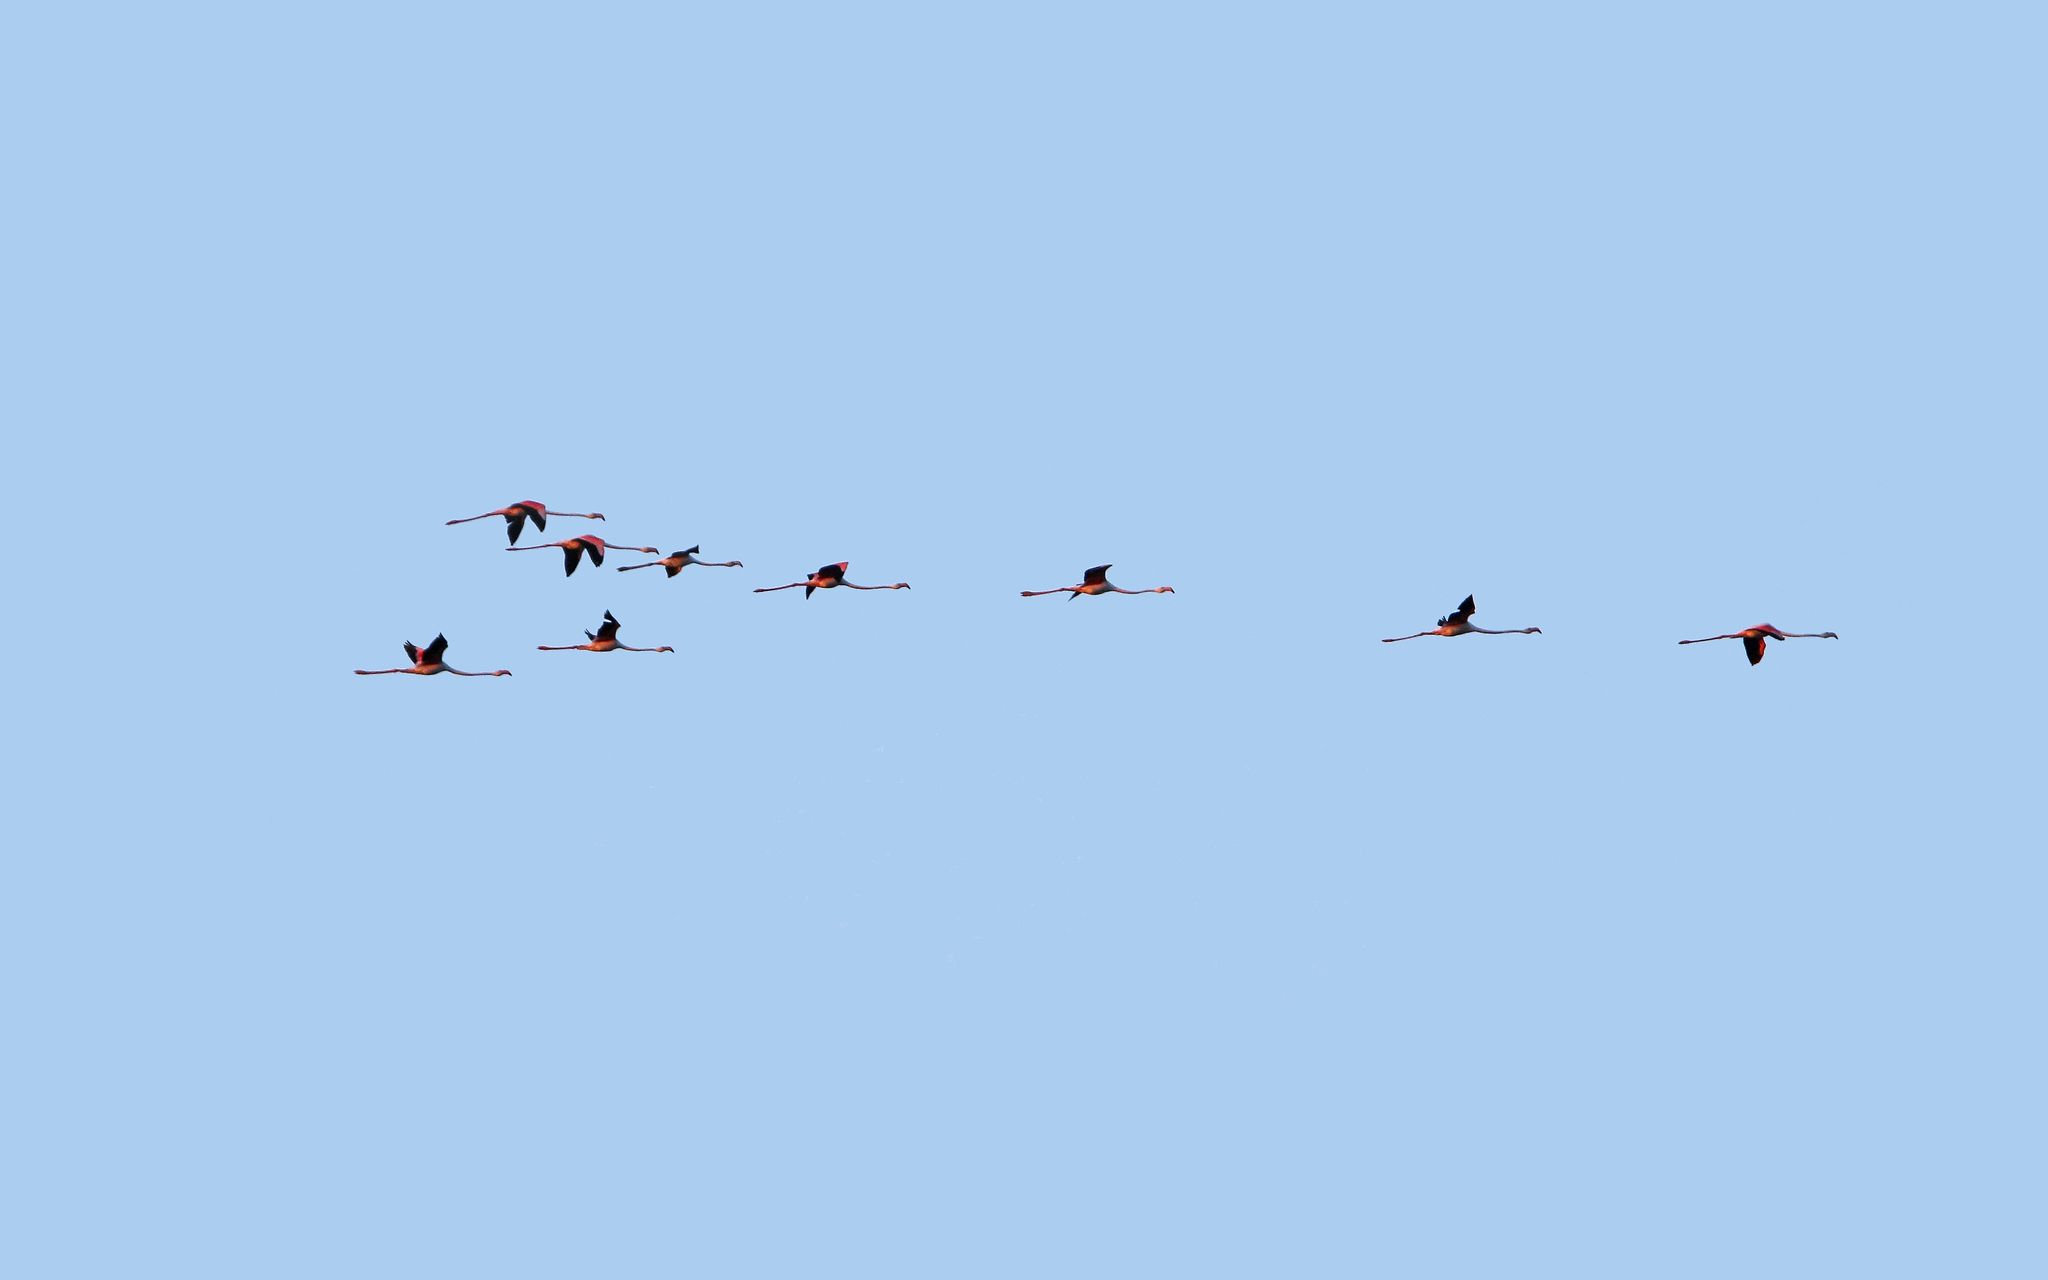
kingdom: Animalia
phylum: Chordata
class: Aves
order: Phoenicopteriformes
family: Phoenicopteridae
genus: Phoenicopterus
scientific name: Phoenicopterus roseus
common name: Greater flamingo
